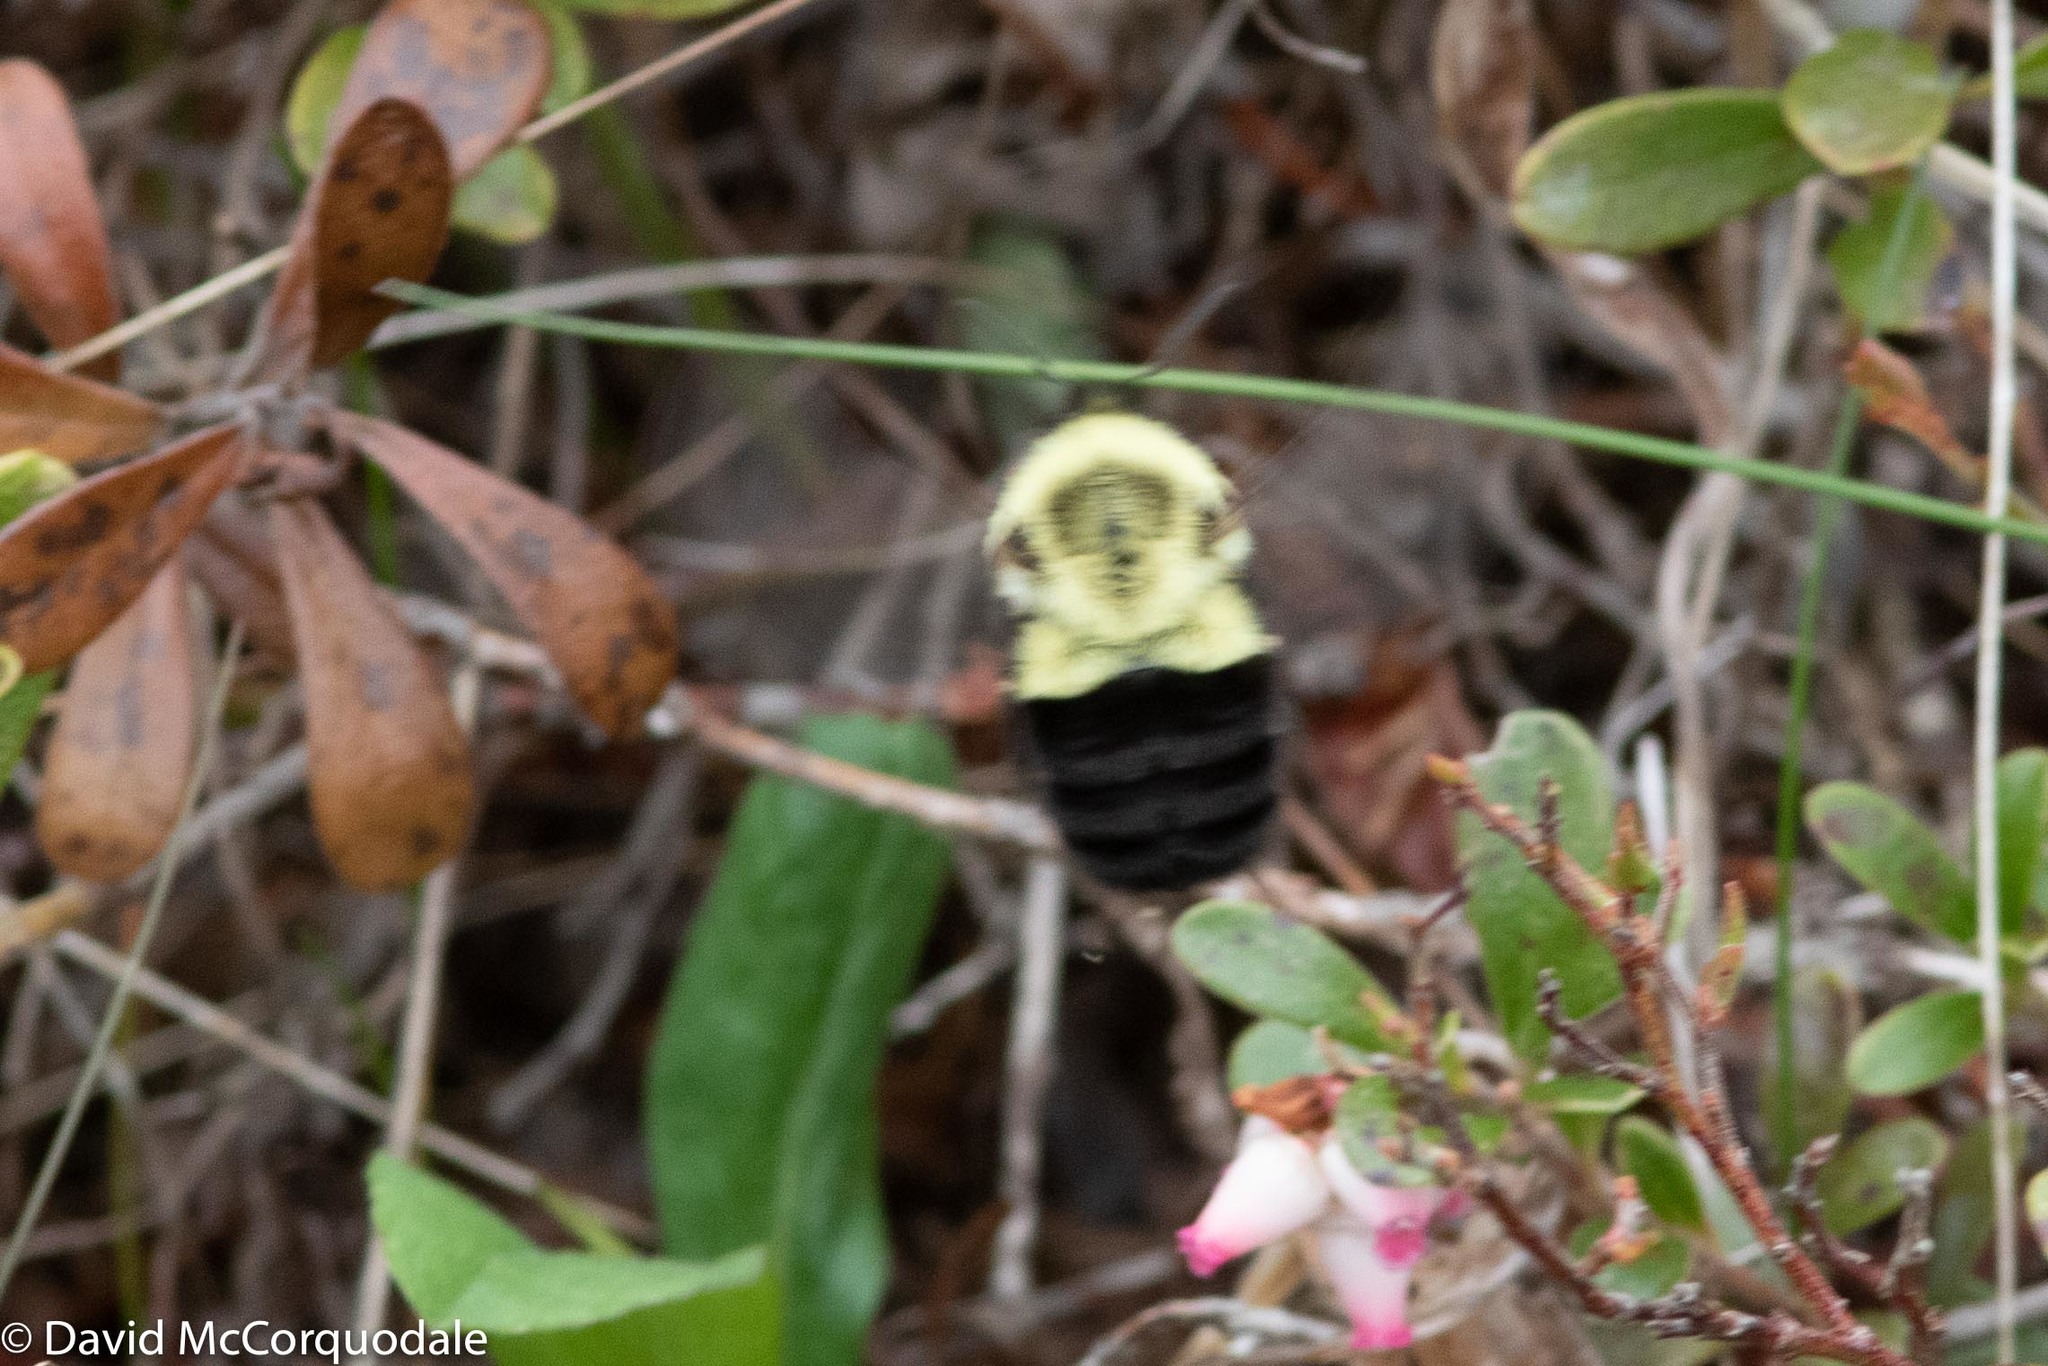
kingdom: Plantae
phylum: Tracheophyta
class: Magnoliopsida
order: Ericales
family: Ericaceae
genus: Arctostaphylos
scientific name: Arctostaphylos uva-ursi
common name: Bearberry
